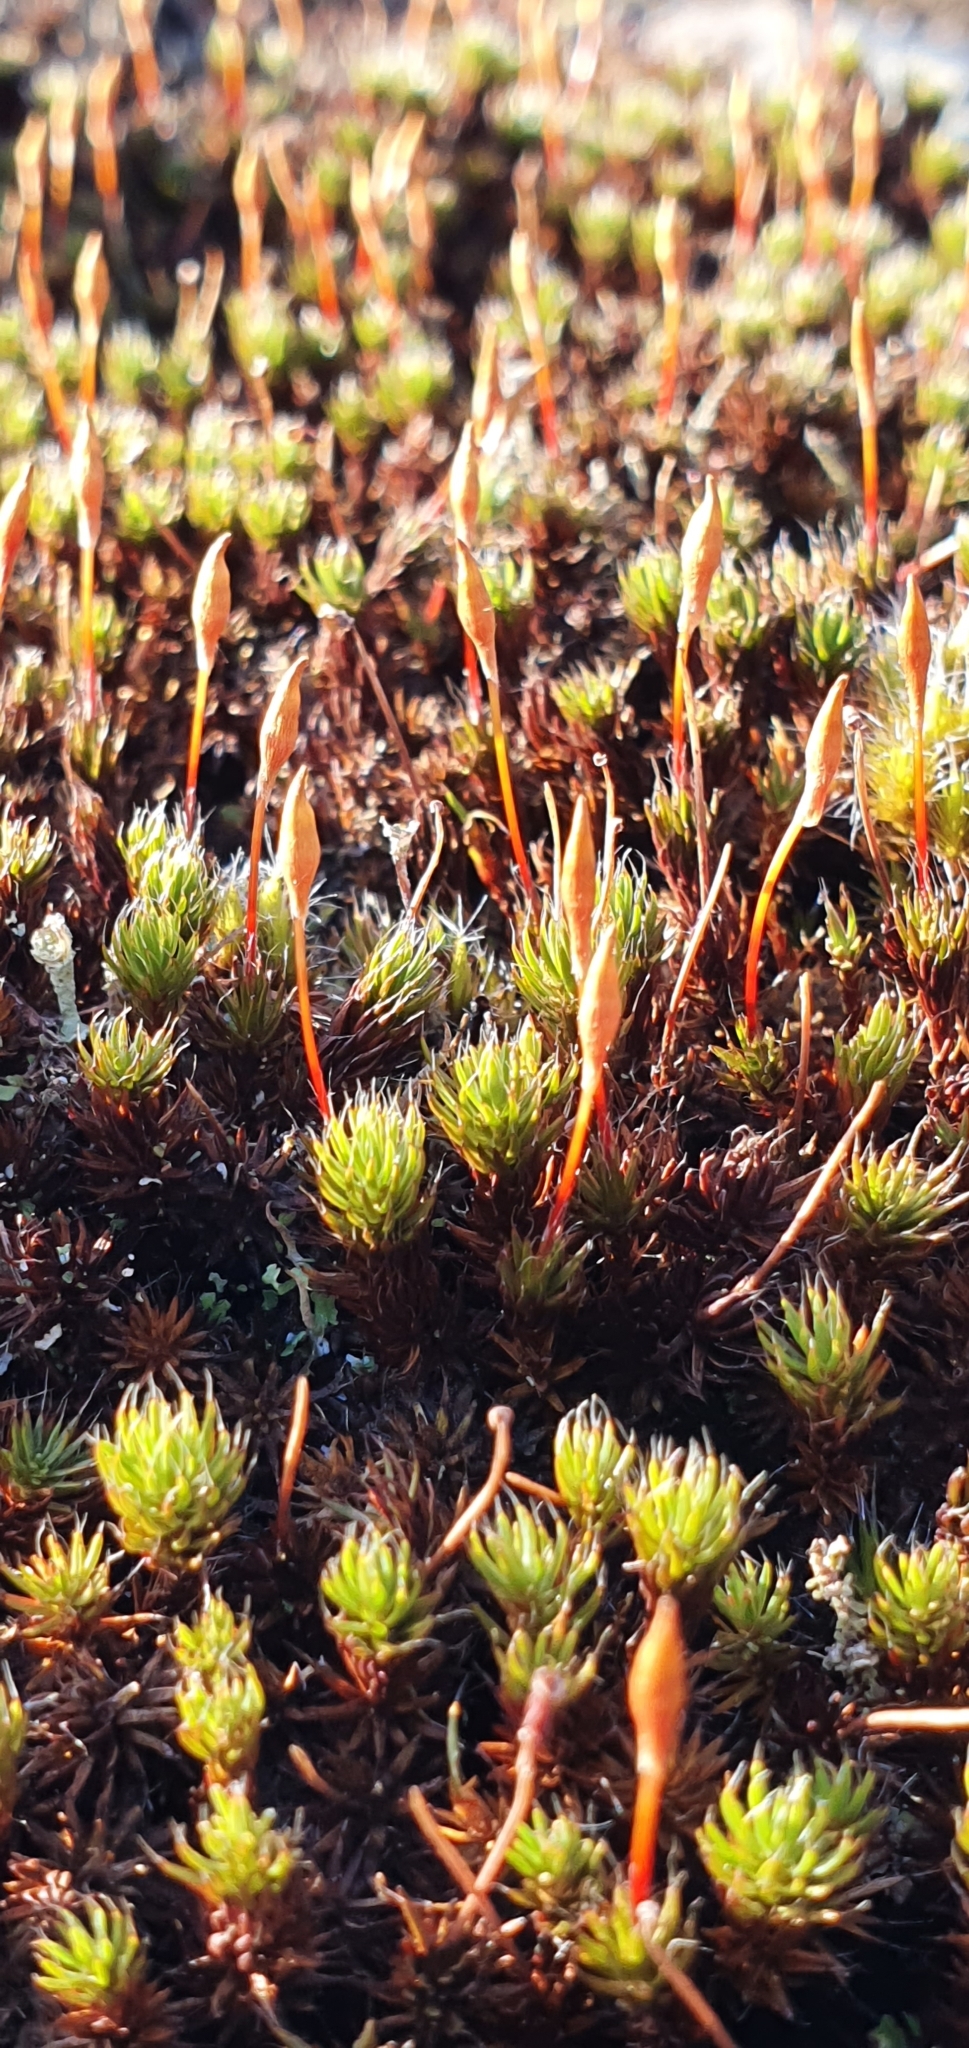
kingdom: Plantae
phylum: Bryophyta
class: Polytrichopsida
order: Polytrichales
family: Polytrichaceae
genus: Polytrichum
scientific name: Polytrichum piliferum
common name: Bristly haircap
